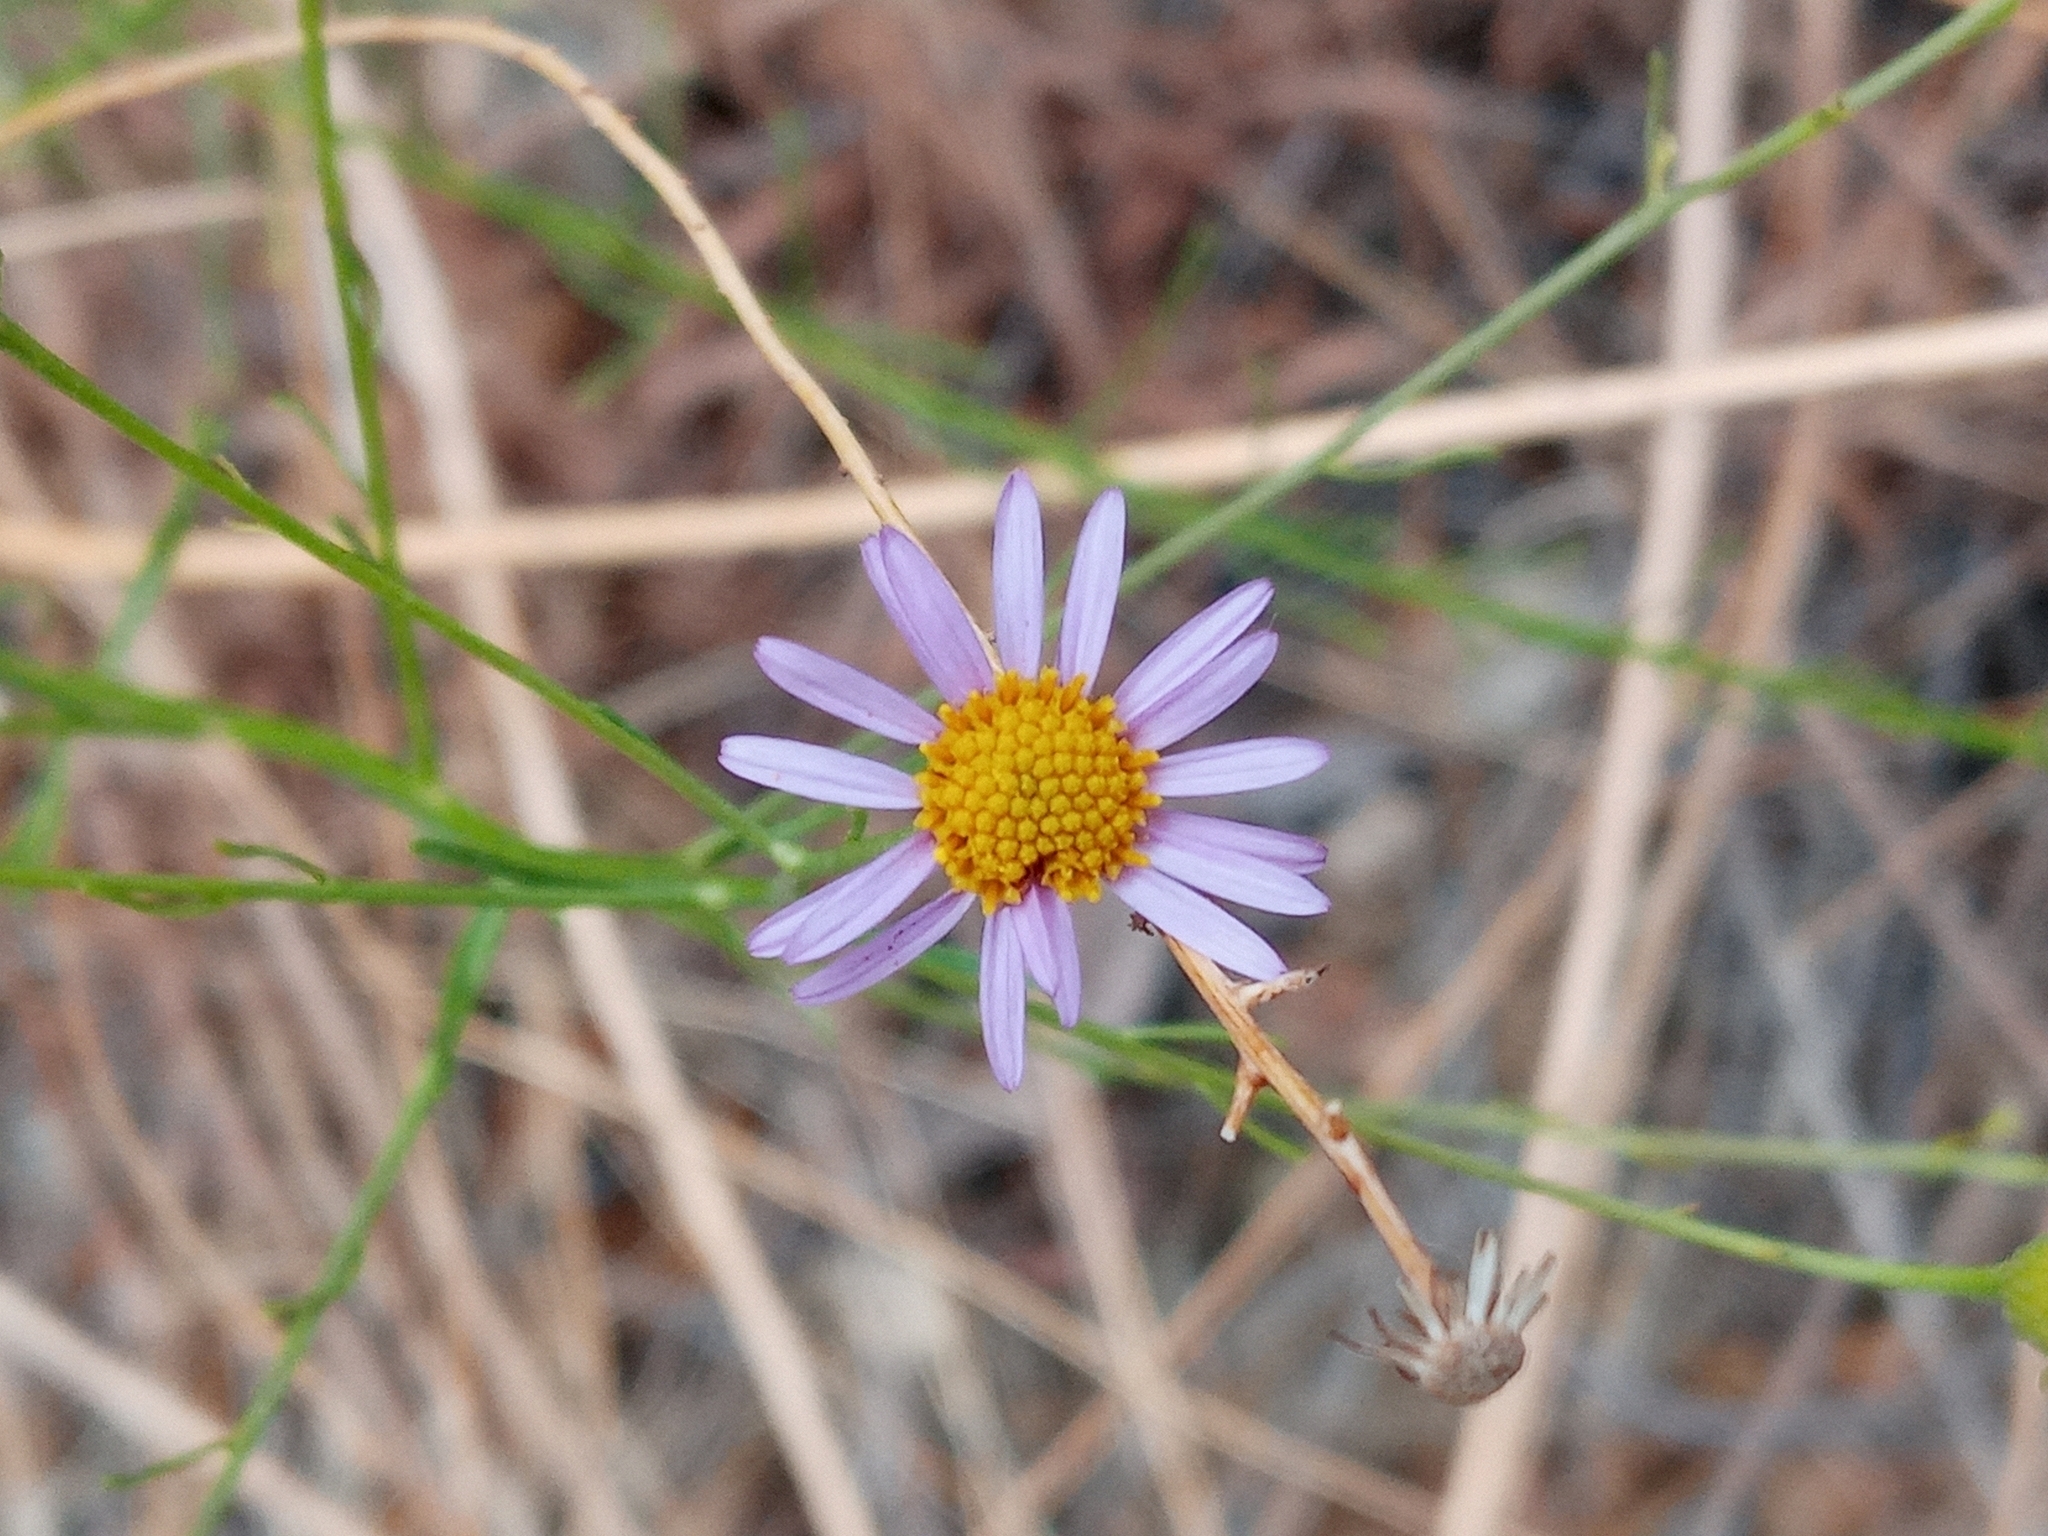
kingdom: Plantae
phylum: Tracheophyta
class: Magnoliopsida
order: Asterales
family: Asteraceae
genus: Erigeron
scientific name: Erigeron foliosus
